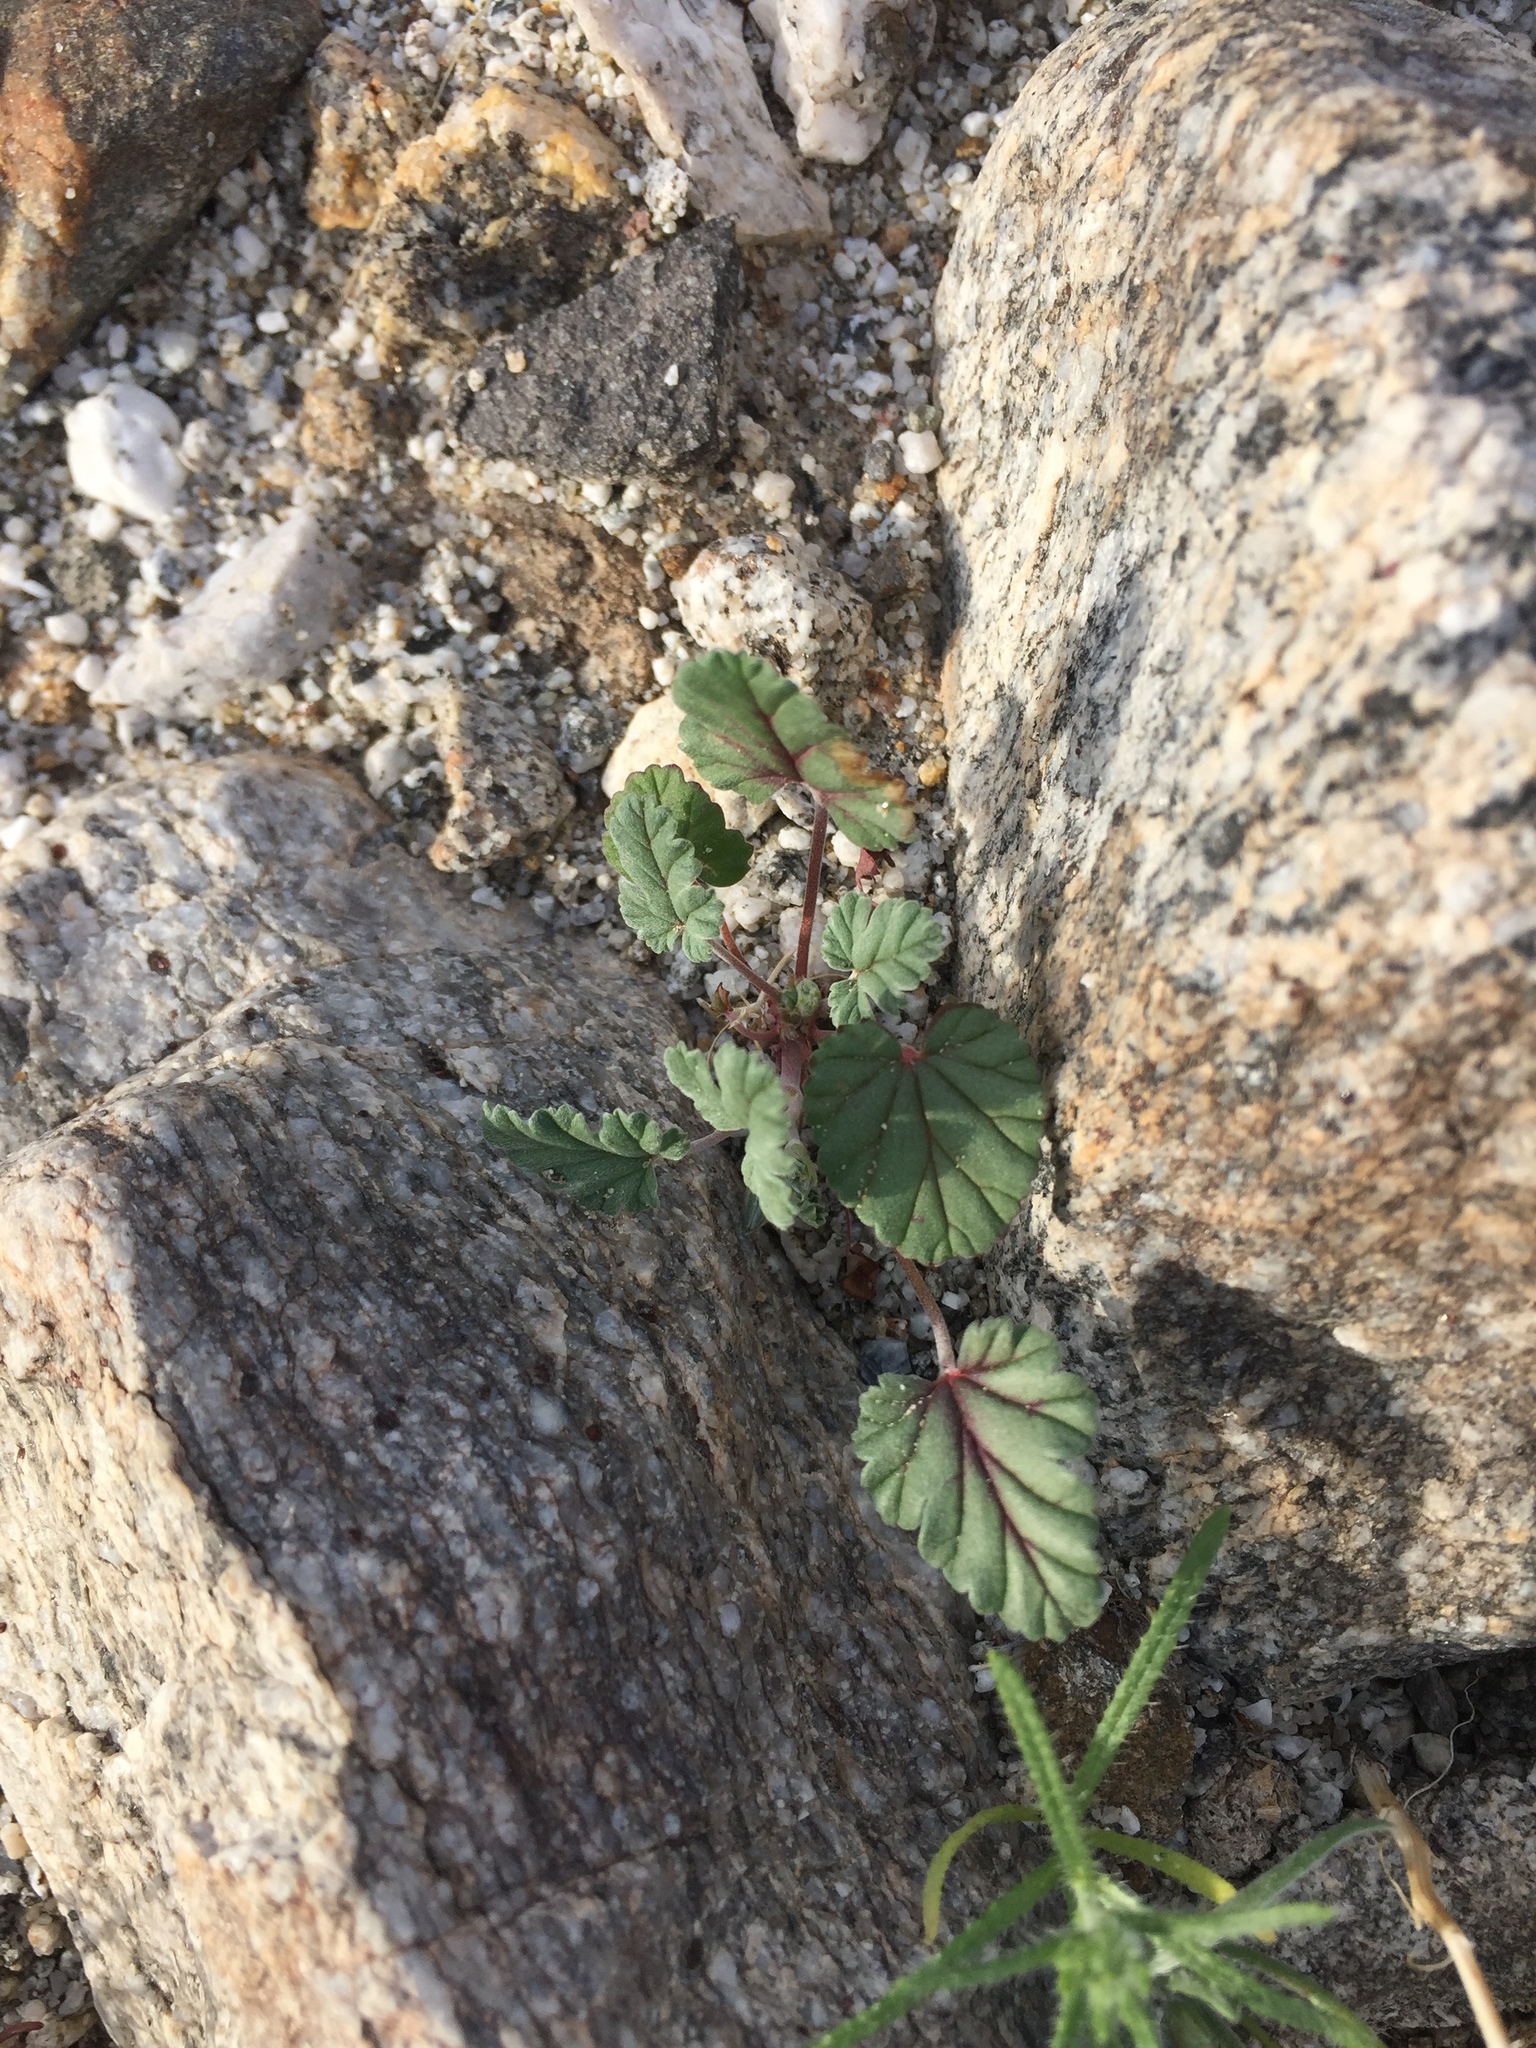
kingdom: Plantae
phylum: Tracheophyta
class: Magnoliopsida
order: Geraniales
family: Geraniaceae
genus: Erodium
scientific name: Erodium texanum
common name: Texas stork's-bill
